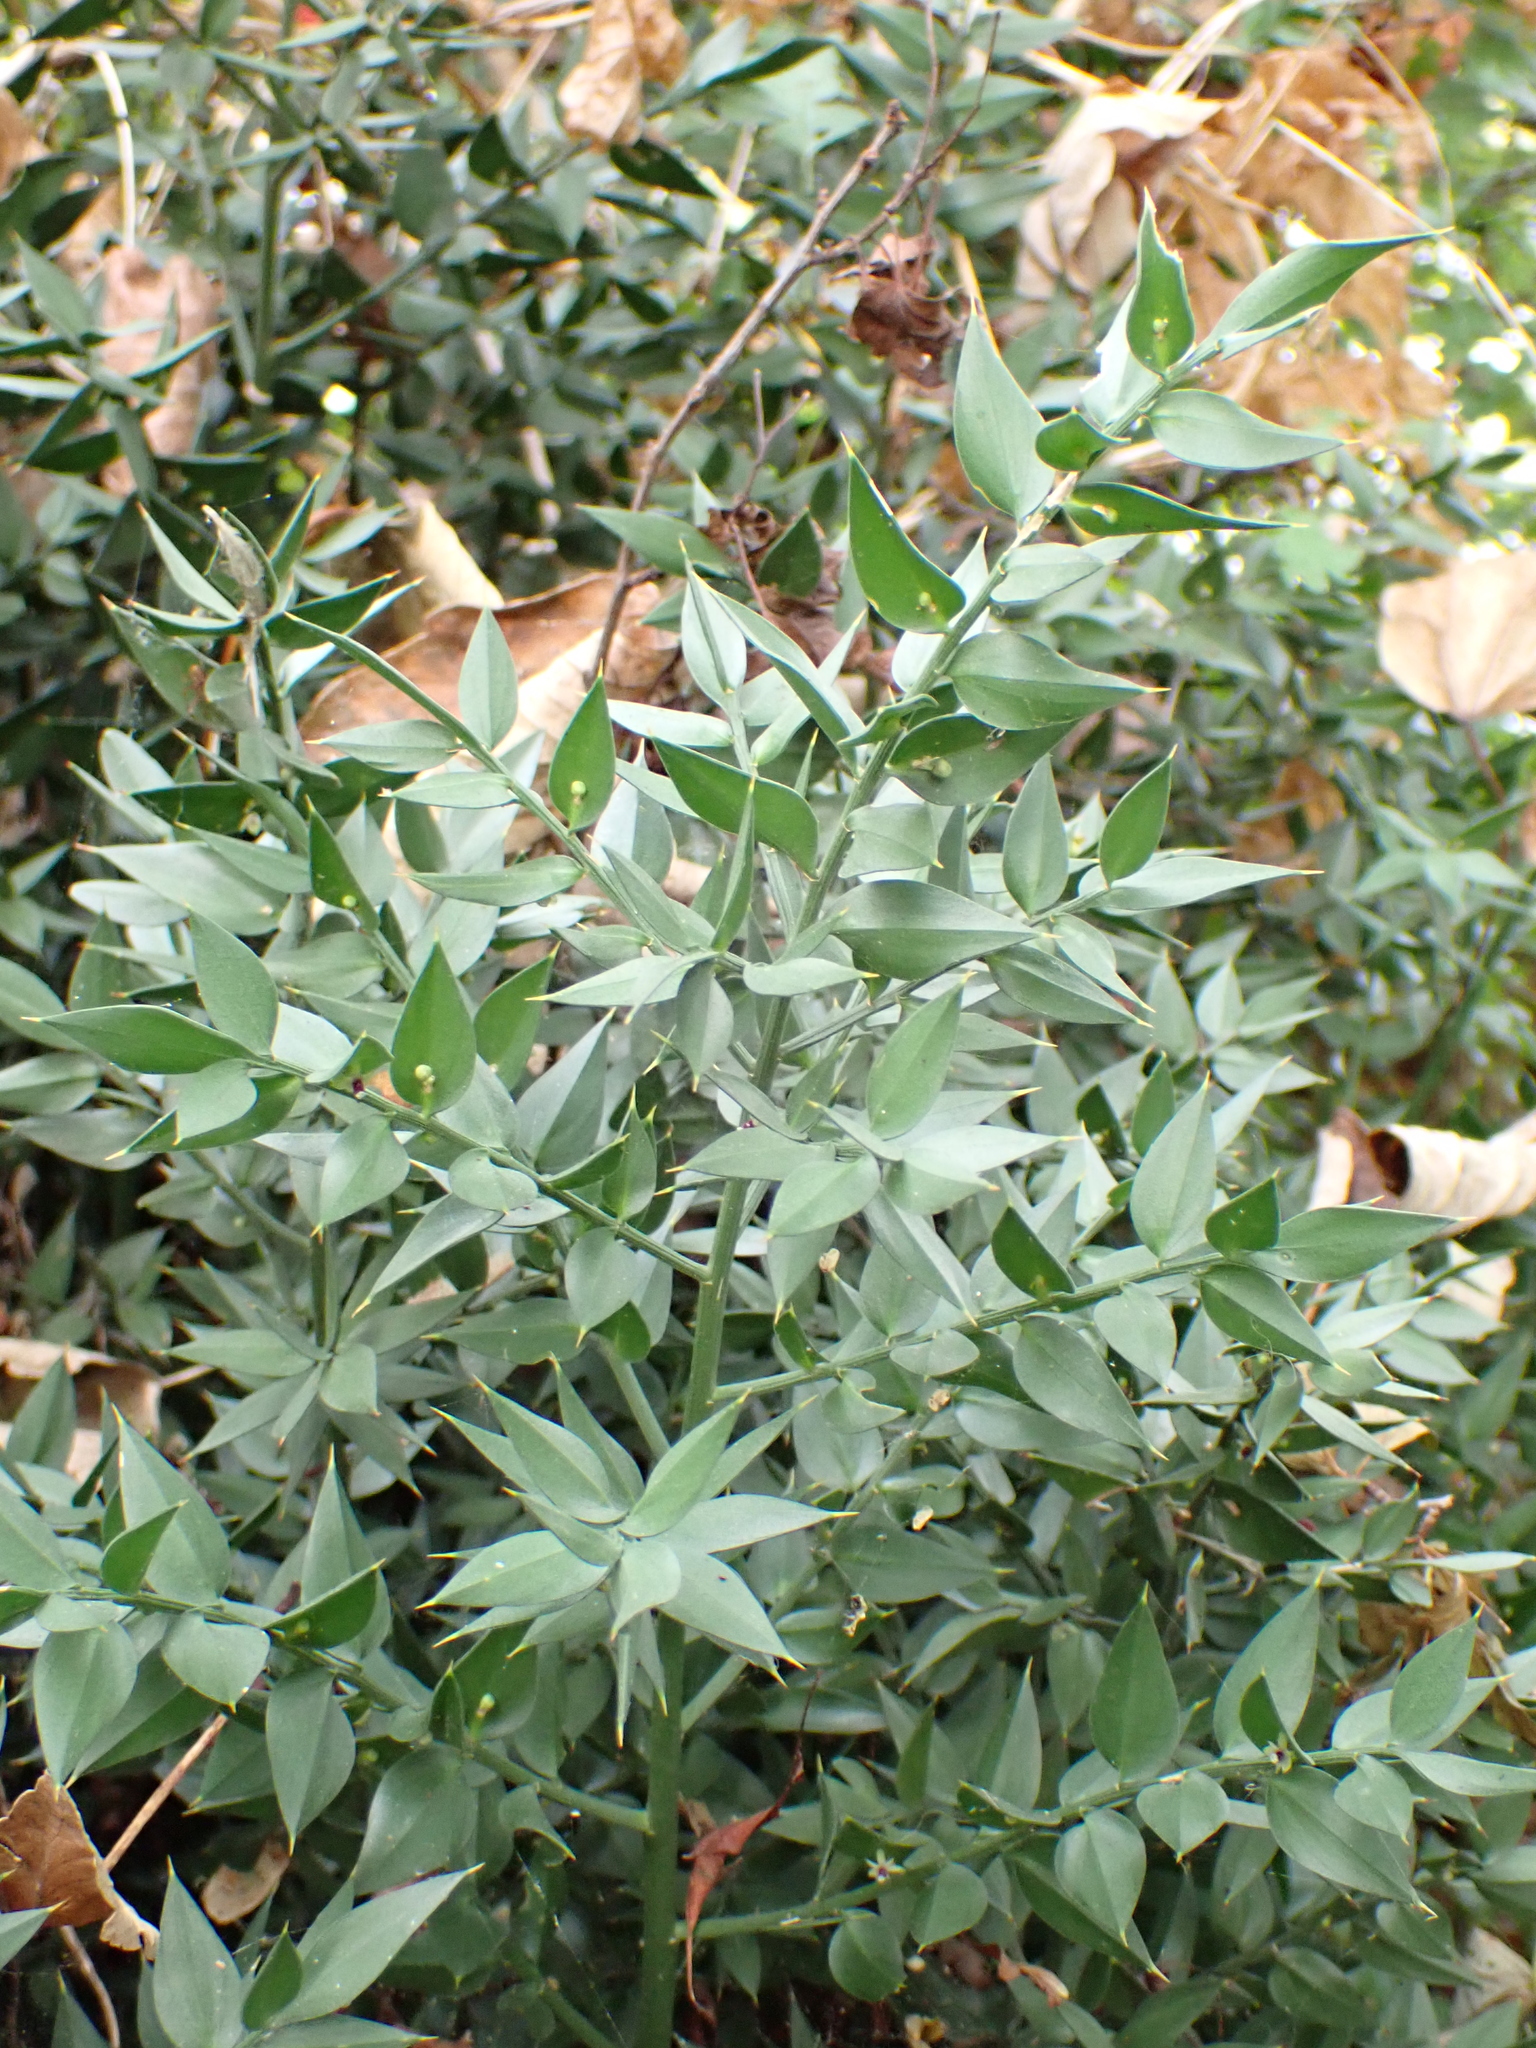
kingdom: Plantae
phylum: Tracheophyta
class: Liliopsida
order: Asparagales
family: Asparagaceae
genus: Ruscus
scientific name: Ruscus aculeatus
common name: Butcher's-broom
